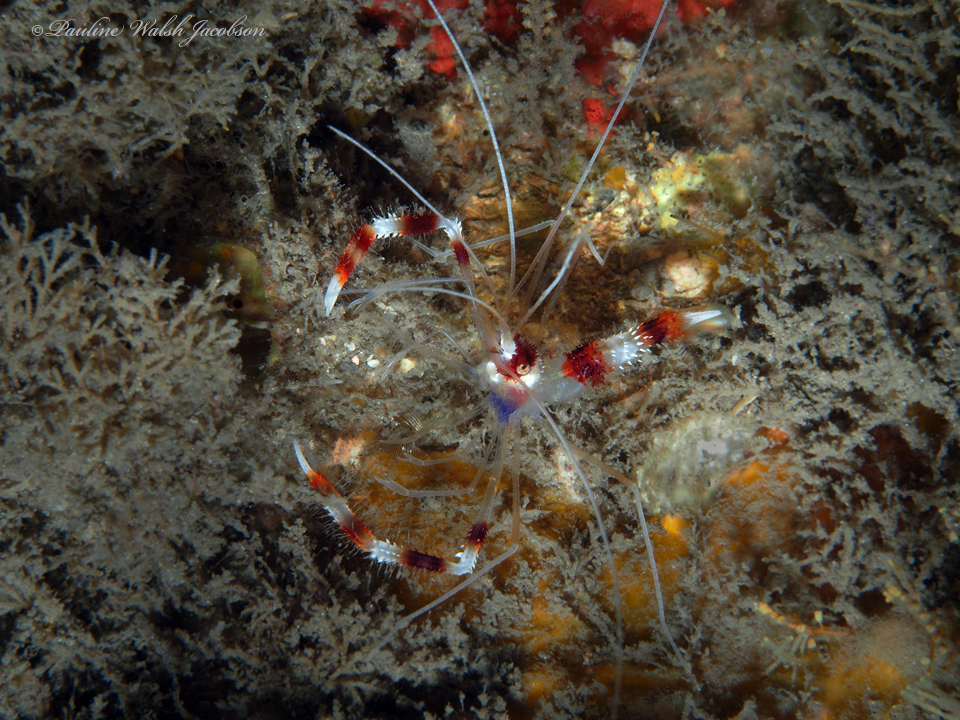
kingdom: Animalia
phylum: Arthropoda
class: Malacostraca
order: Decapoda
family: Stenopodidae
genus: Stenopus
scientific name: Stenopus hispidus
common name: Banded coral shrimp
